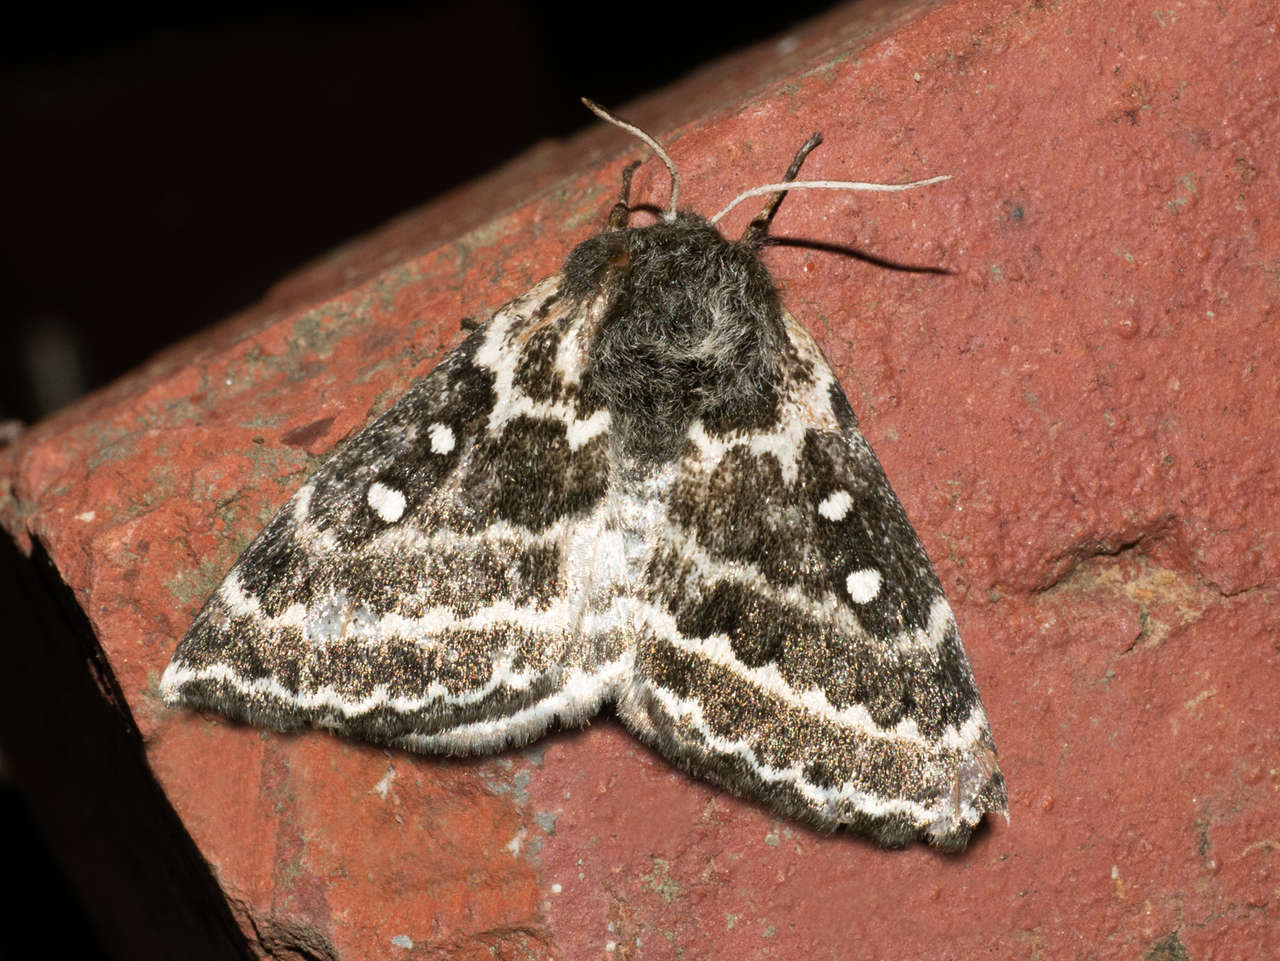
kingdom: Animalia
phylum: Arthropoda
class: Insecta
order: Lepidoptera
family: Anthelidae
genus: Anthela
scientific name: Anthela denticulata
